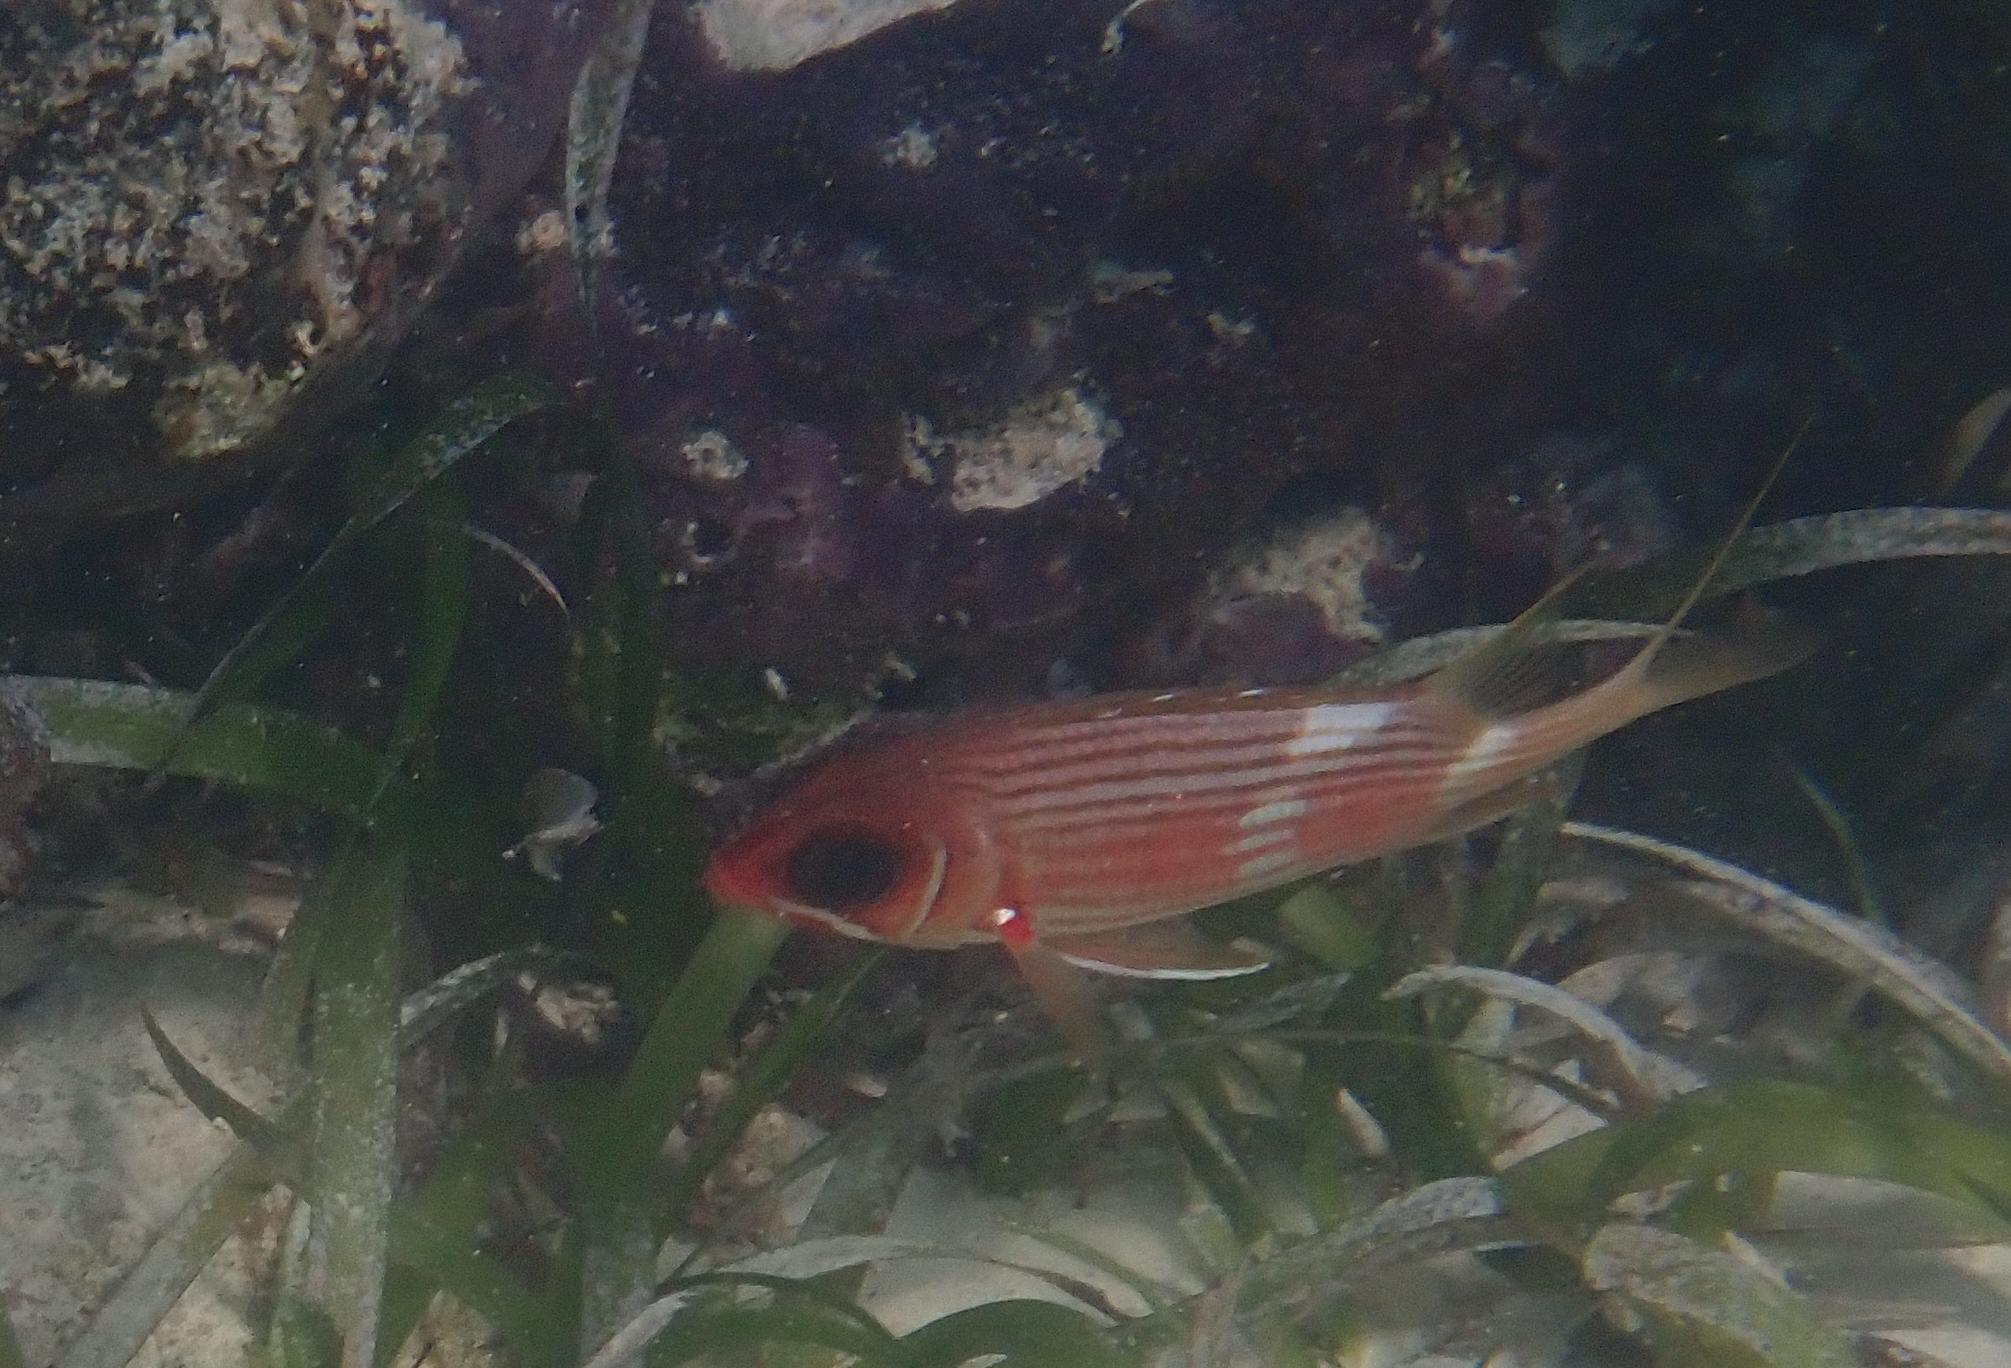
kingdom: Animalia
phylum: Chordata
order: Beryciformes
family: Holocentridae
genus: Holocentrus
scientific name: Holocentrus rufus
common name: Longspine squirrelfish
